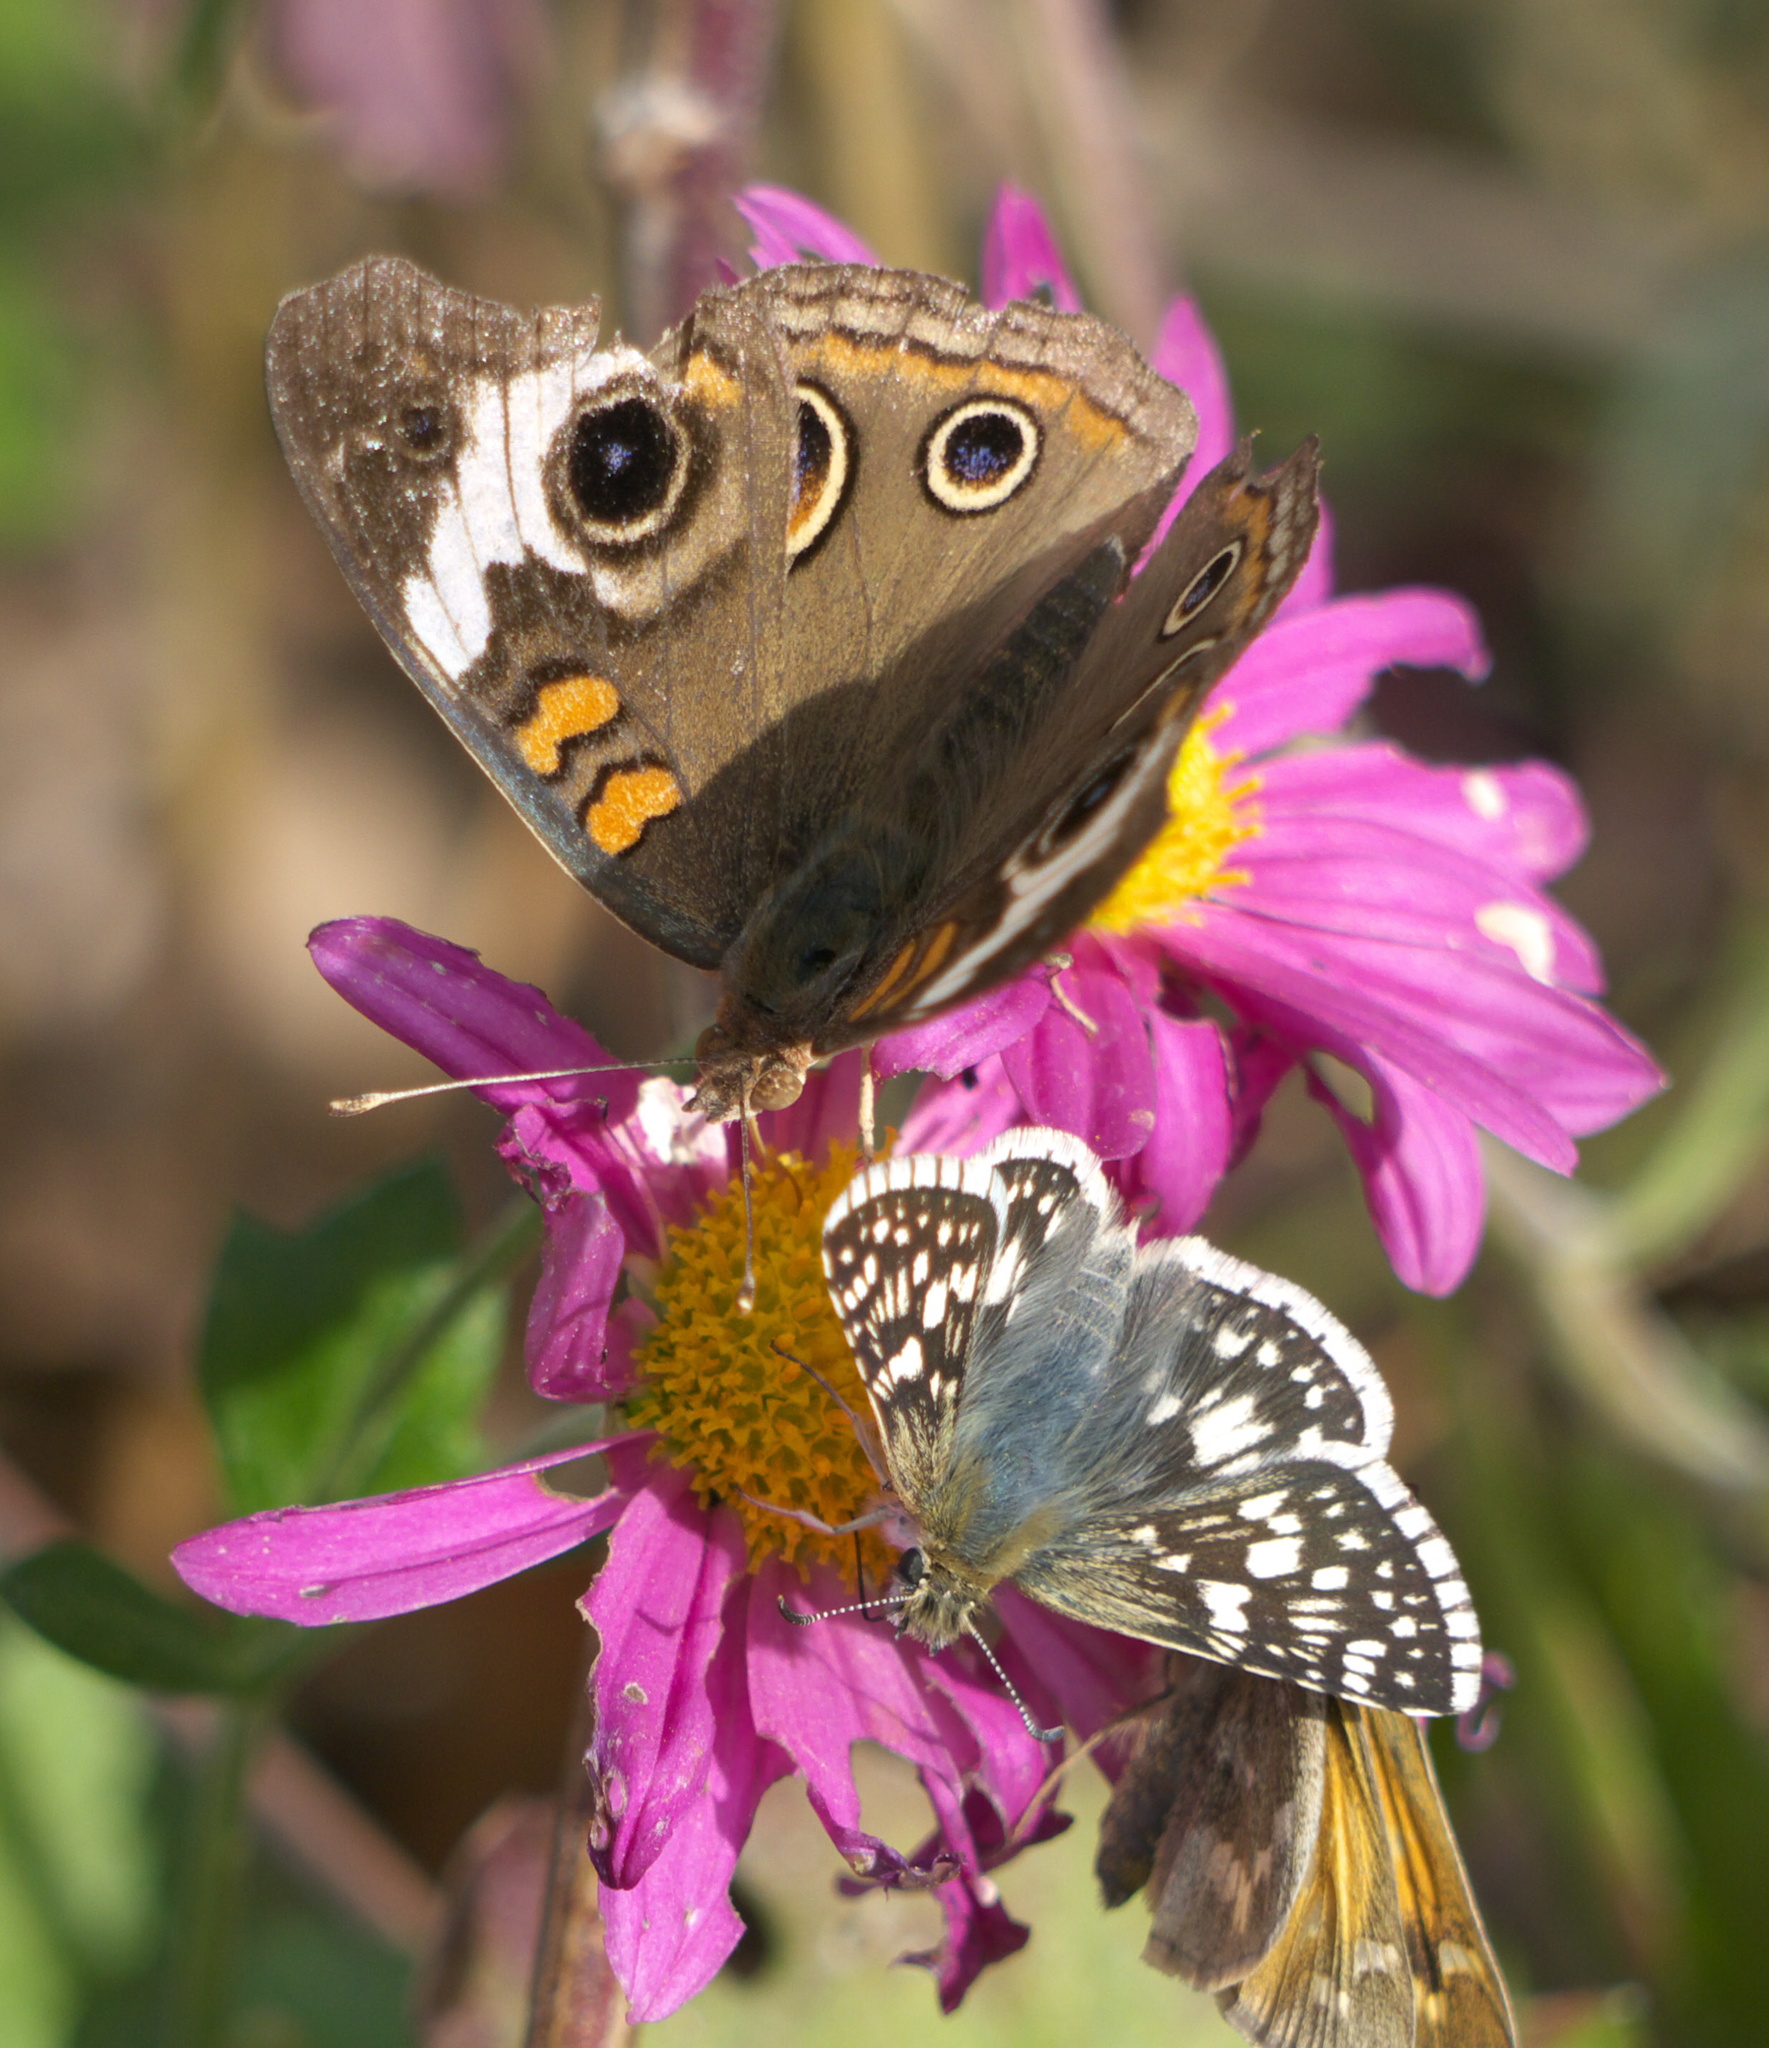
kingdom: Animalia
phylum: Arthropoda
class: Insecta
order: Lepidoptera
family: Nymphalidae
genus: Junonia
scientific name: Junonia coenia
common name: Common buckeye
